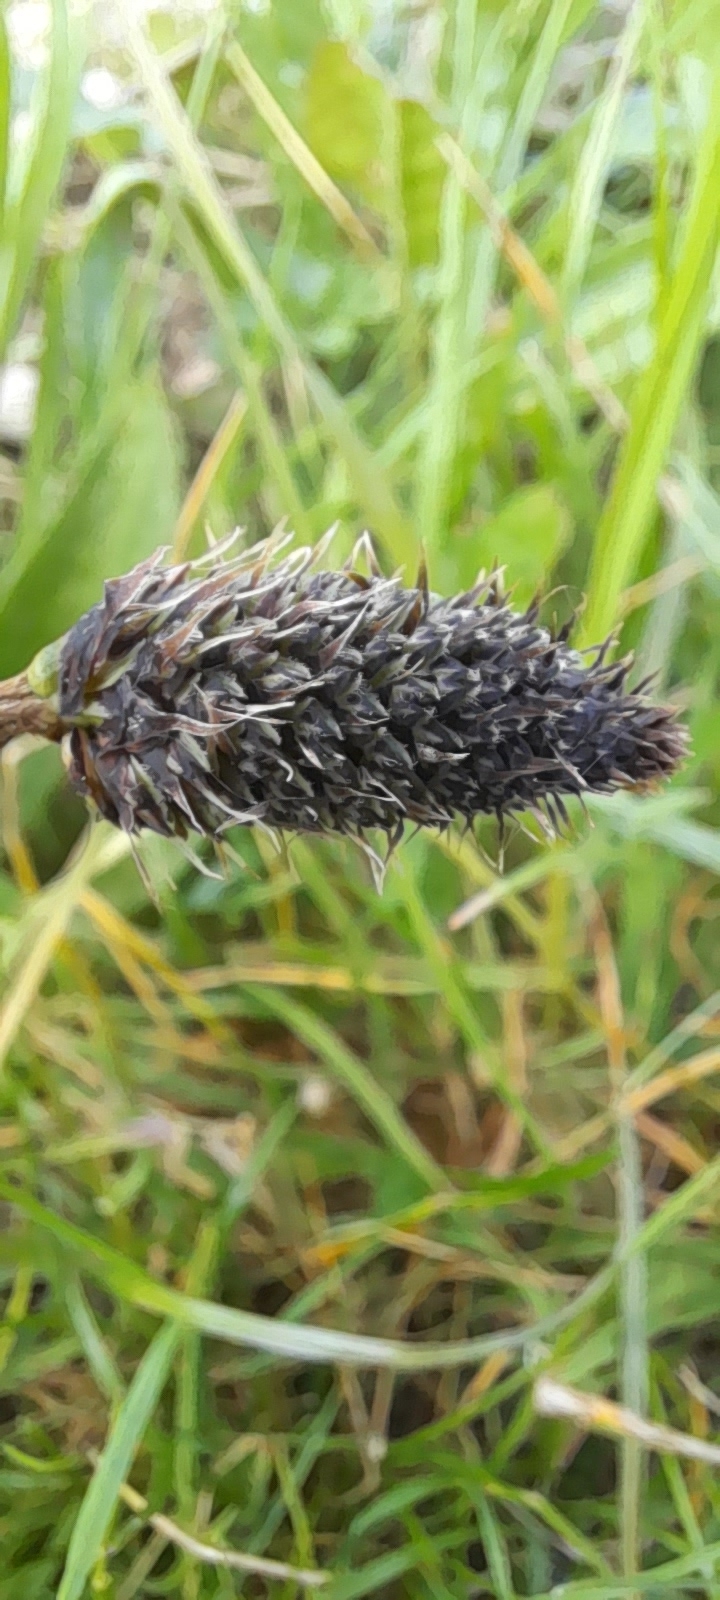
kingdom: Plantae
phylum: Tracheophyta
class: Magnoliopsida
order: Lamiales
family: Plantaginaceae
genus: Plantago
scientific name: Plantago lanceolata
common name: Ribwort plantain
